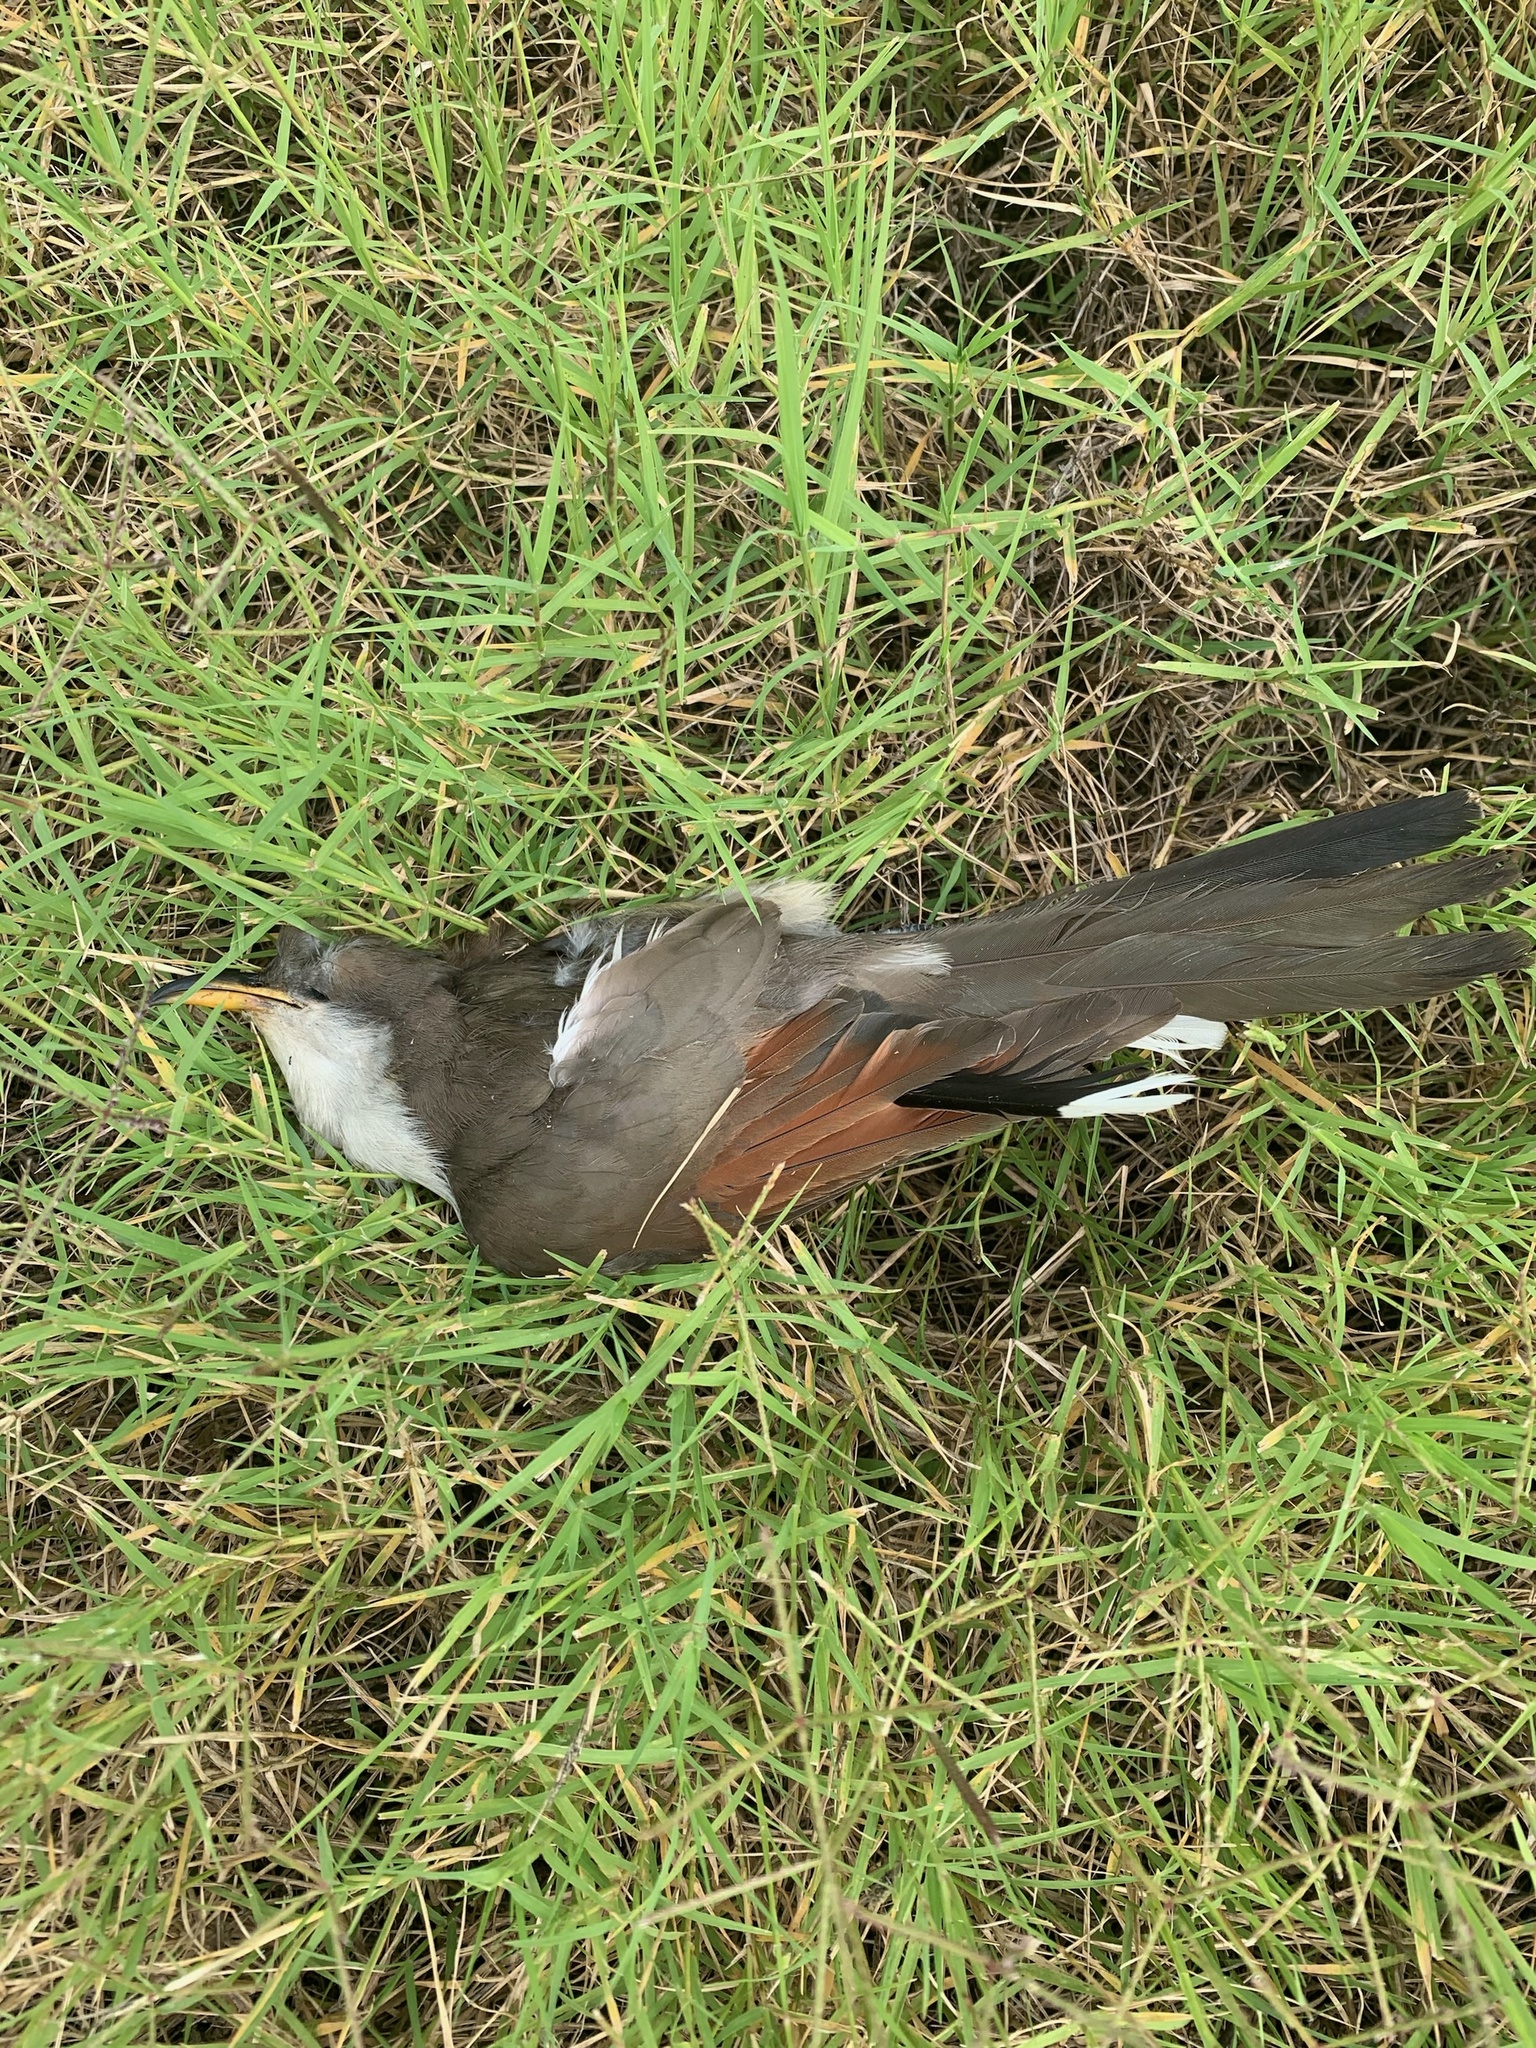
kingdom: Animalia
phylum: Chordata
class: Aves
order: Cuculiformes
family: Cuculidae
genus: Coccyzus
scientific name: Coccyzus americanus
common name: Yellow-billed cuckoo
